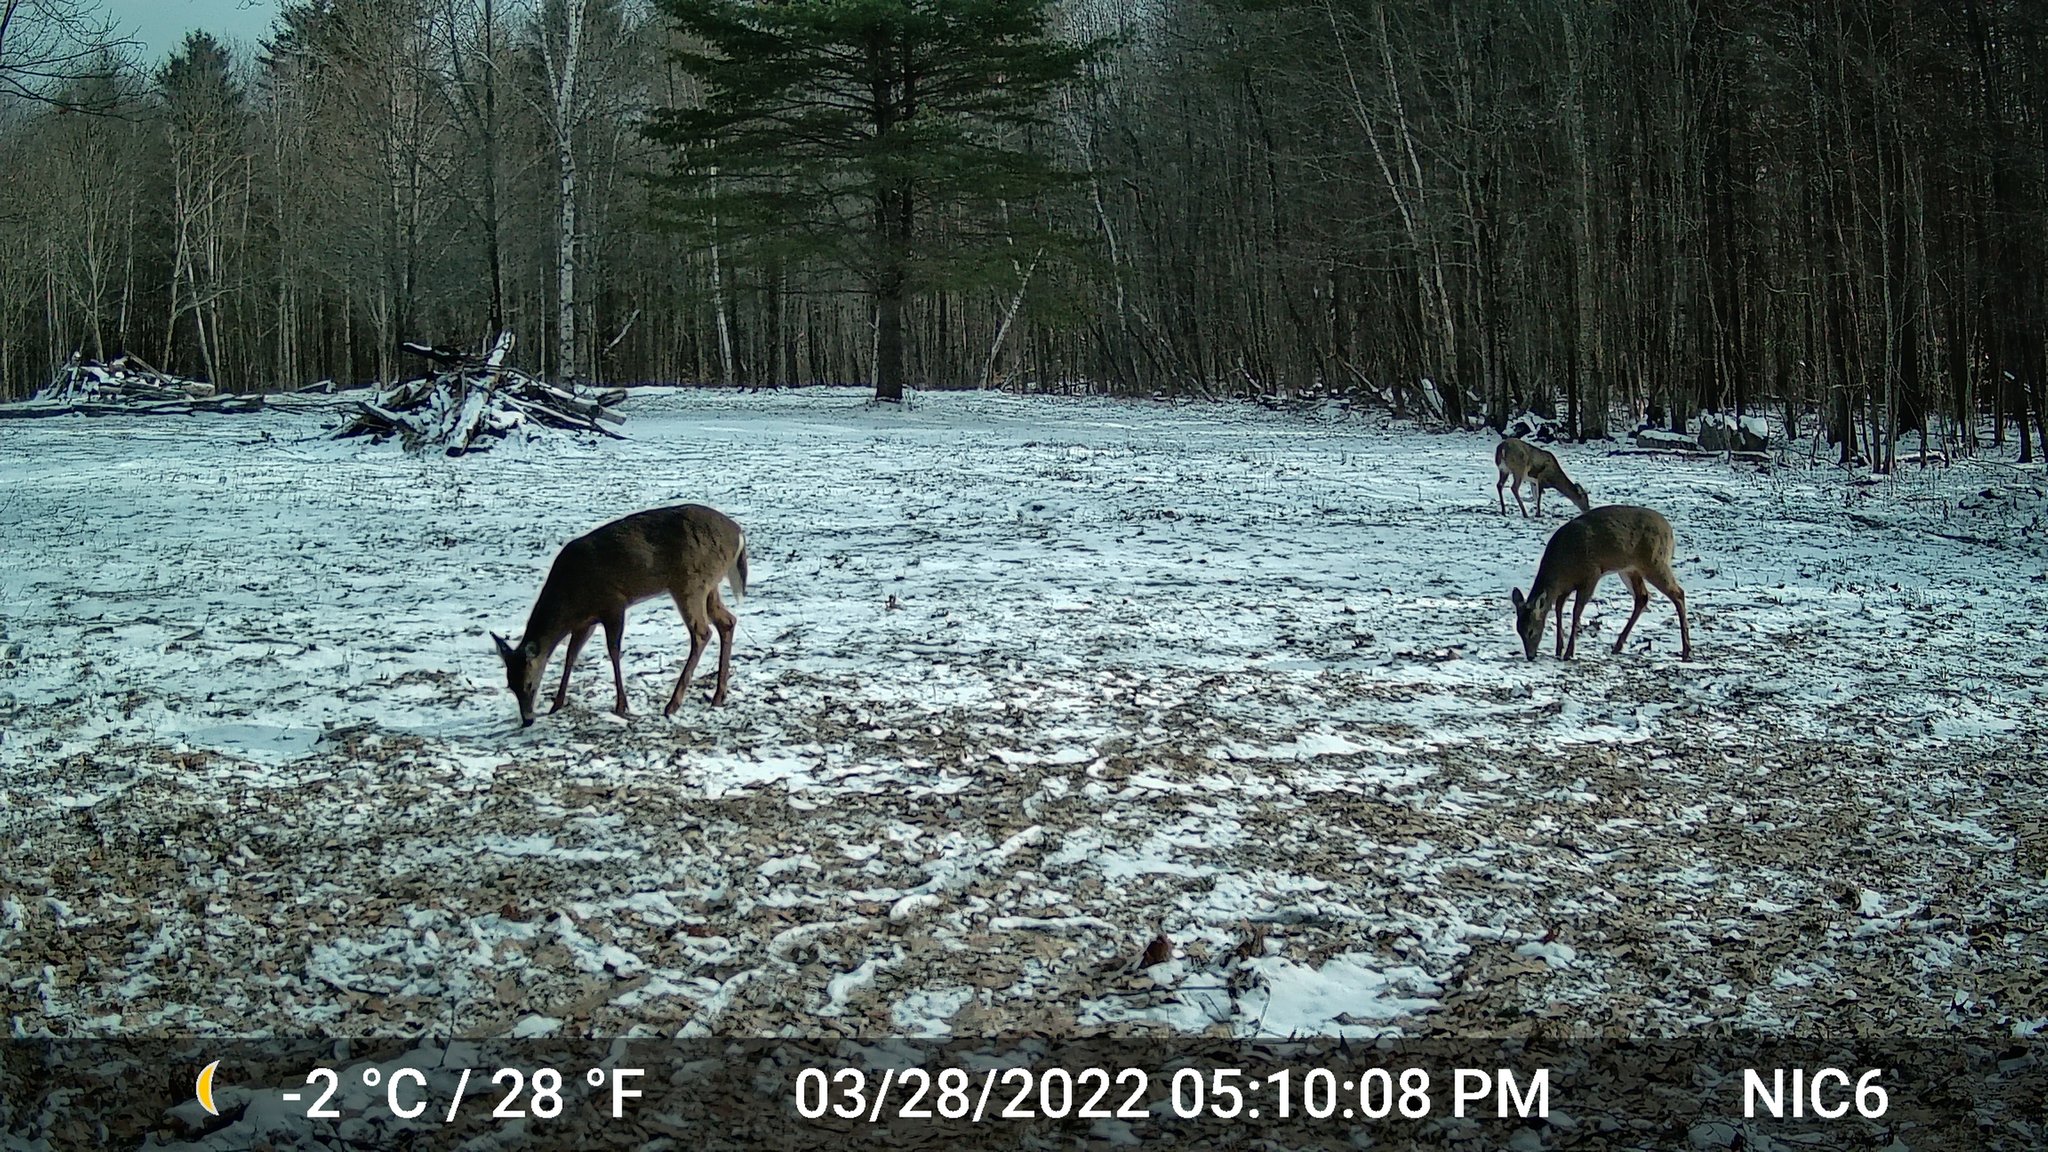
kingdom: Animalia
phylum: Chordata
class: Mammalia
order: Artiodactyla
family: Cervidae
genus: Odocoileus
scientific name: Odocoileus virginianus
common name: White-tailed deer
